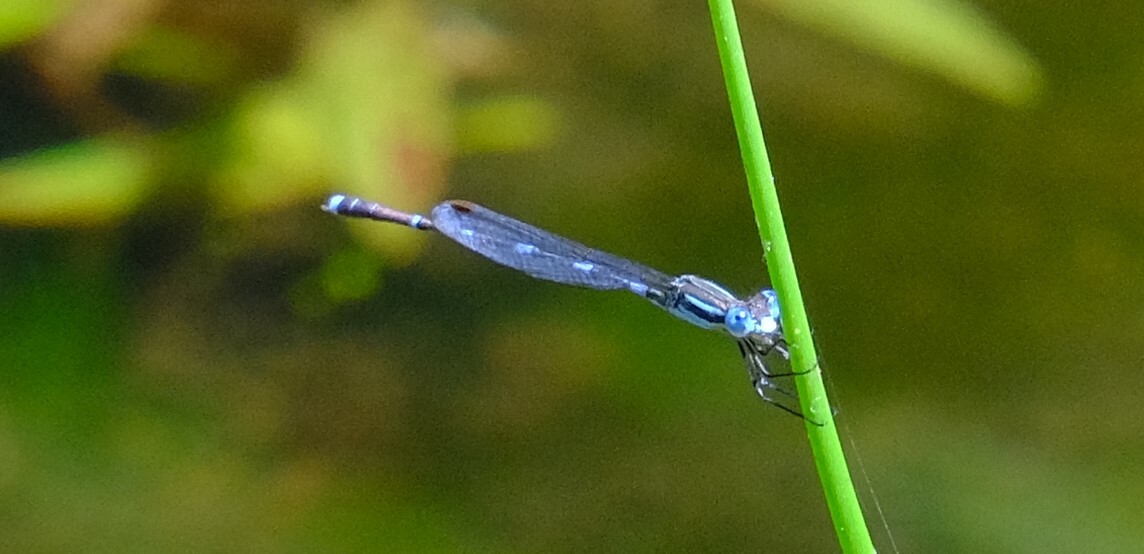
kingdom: Animalia
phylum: Arthropoda
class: Insecta
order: Odonata
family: Lestidae
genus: Austrolestes
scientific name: Austrolestes leda
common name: Wandering ringtail
